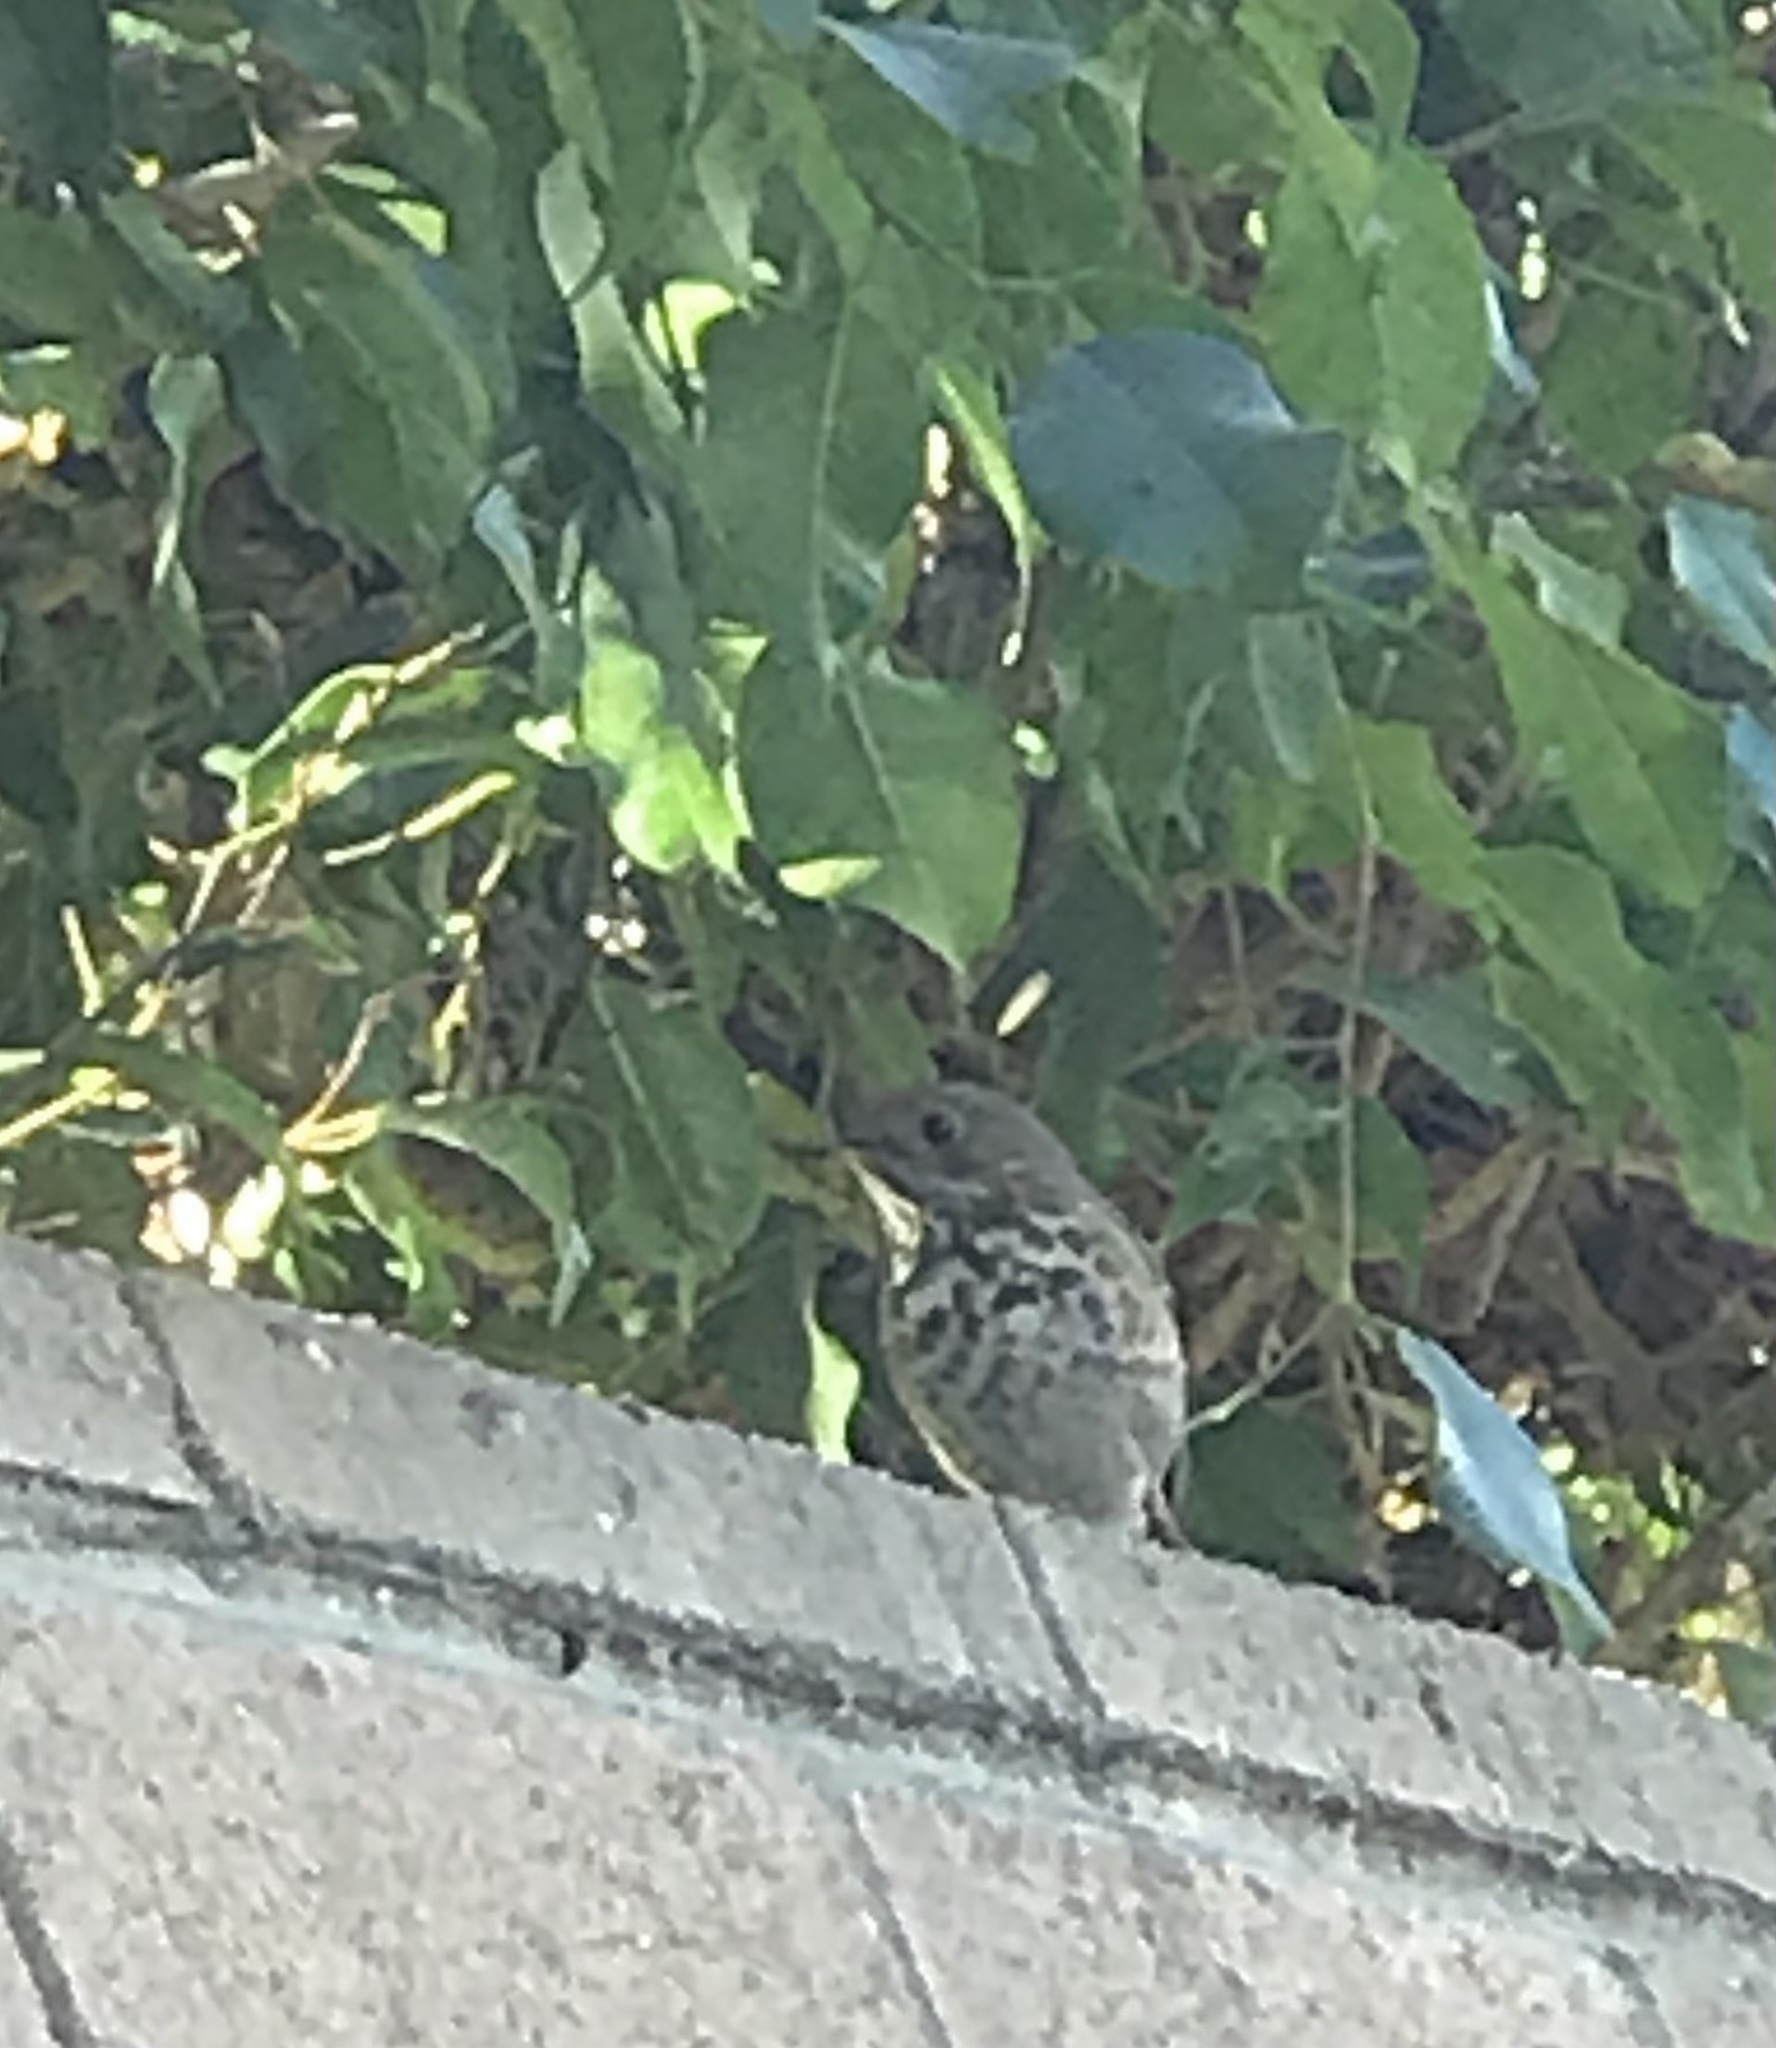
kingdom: Animalia
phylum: Chordata
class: Aves
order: Passeriformes
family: Turdidae
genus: Catharus
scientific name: Catharus guttatus
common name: Hermit thrush
